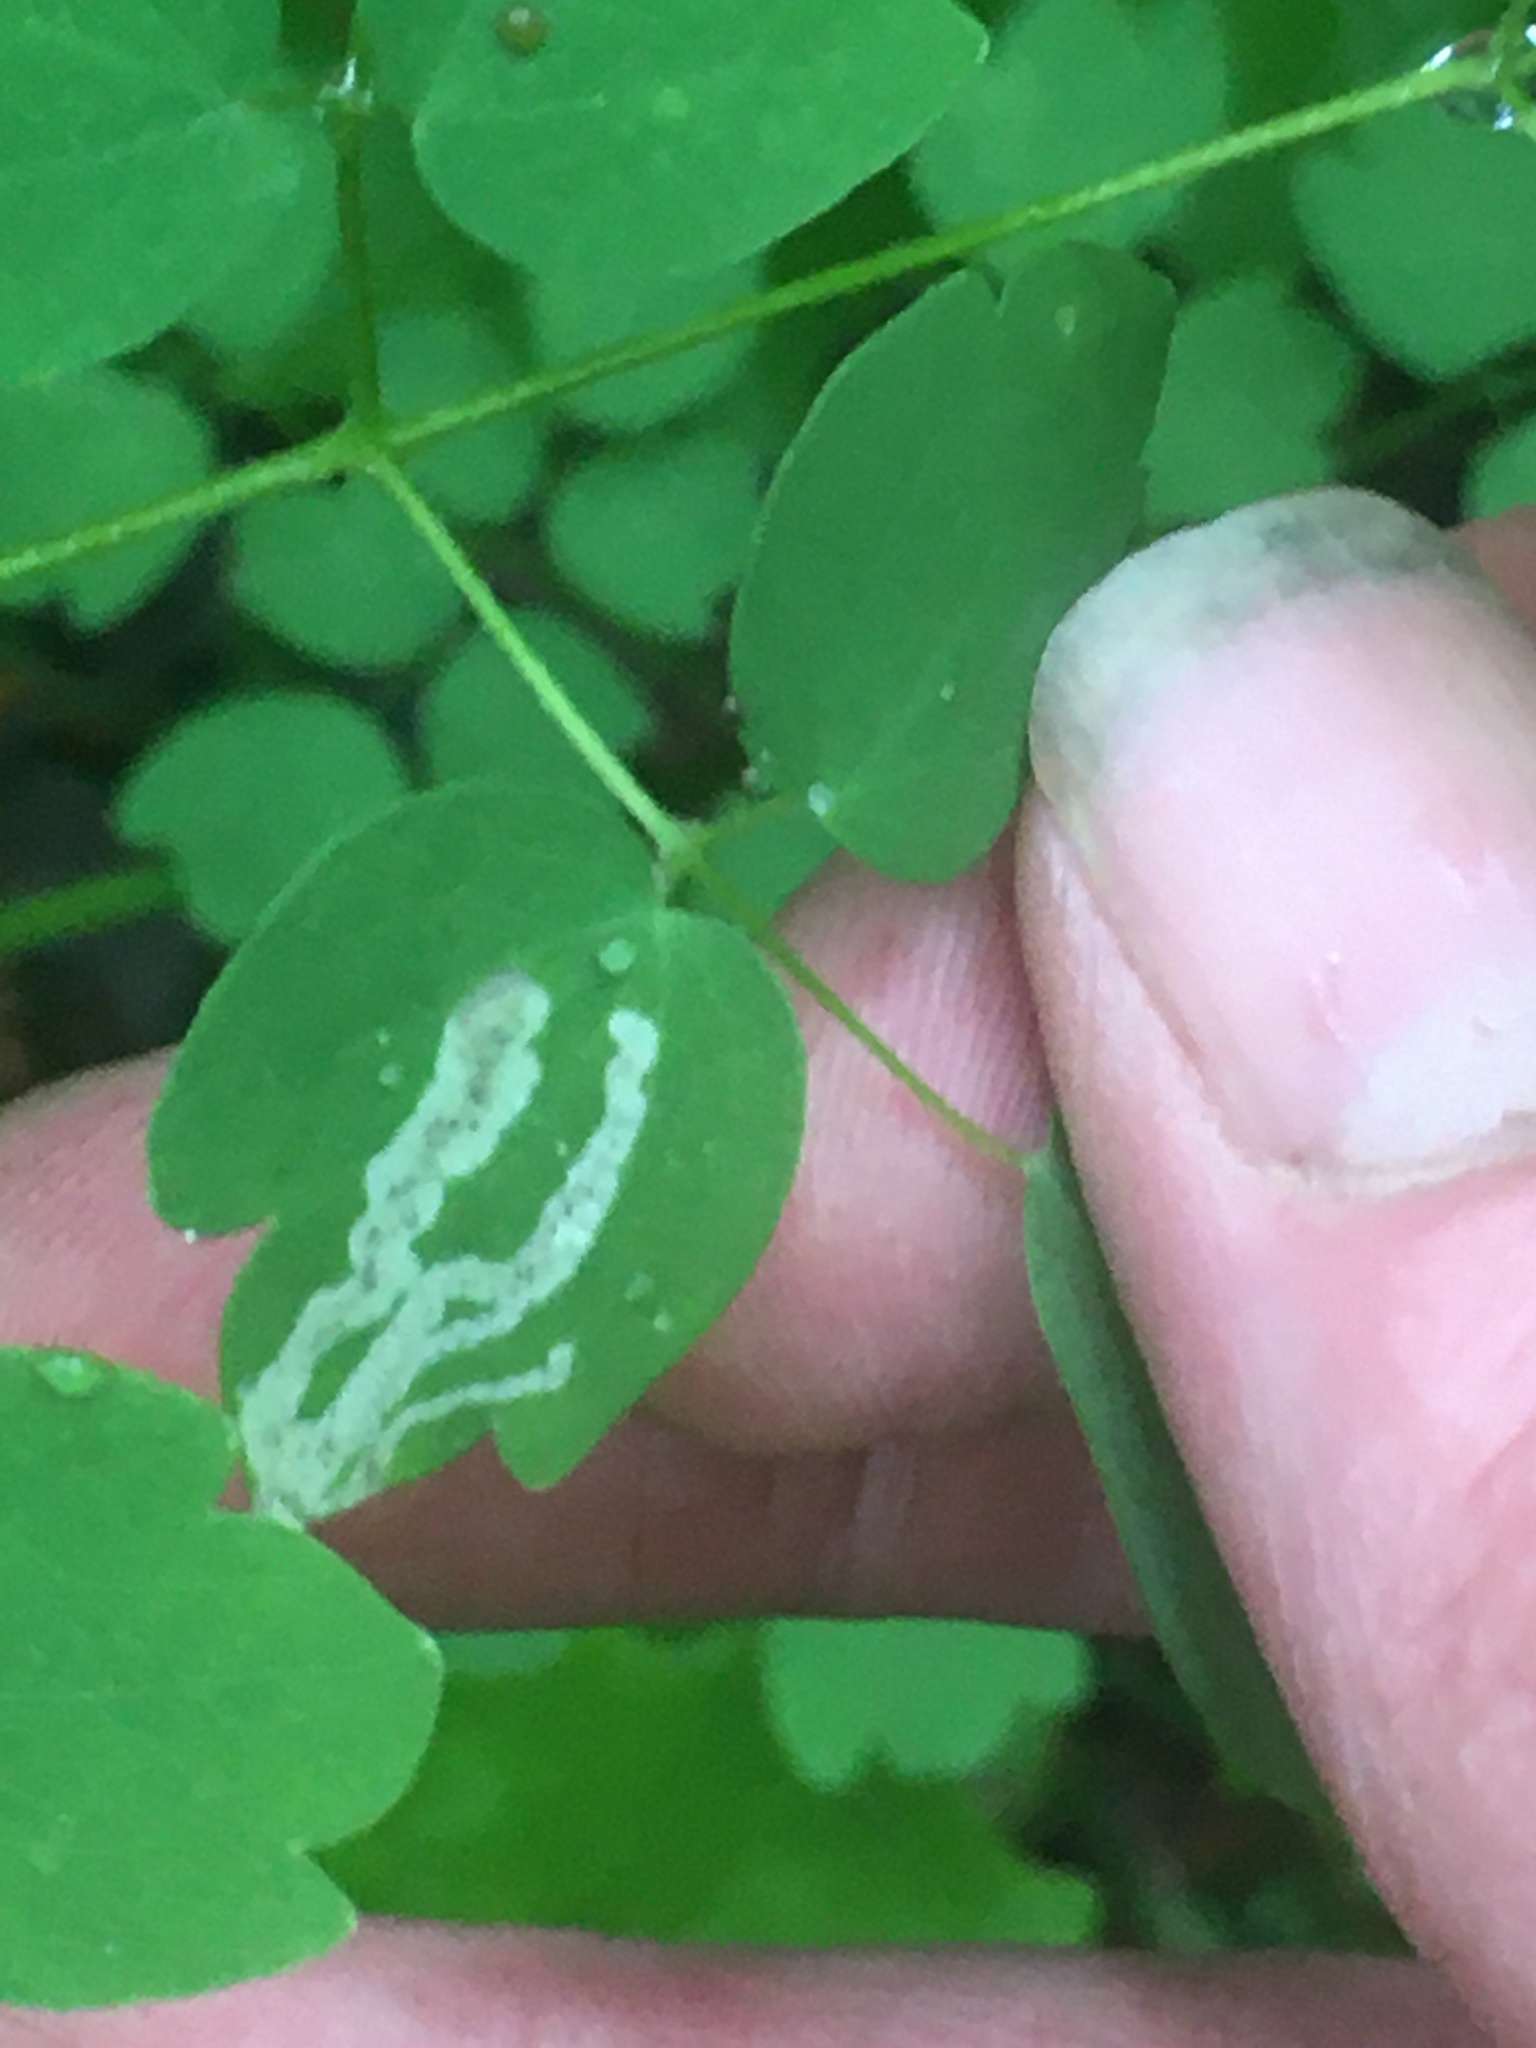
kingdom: Animalia
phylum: Arthropoda
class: Insecta
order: Diptera
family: Agromyzidae
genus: Phytomyza
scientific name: Phytomyza
